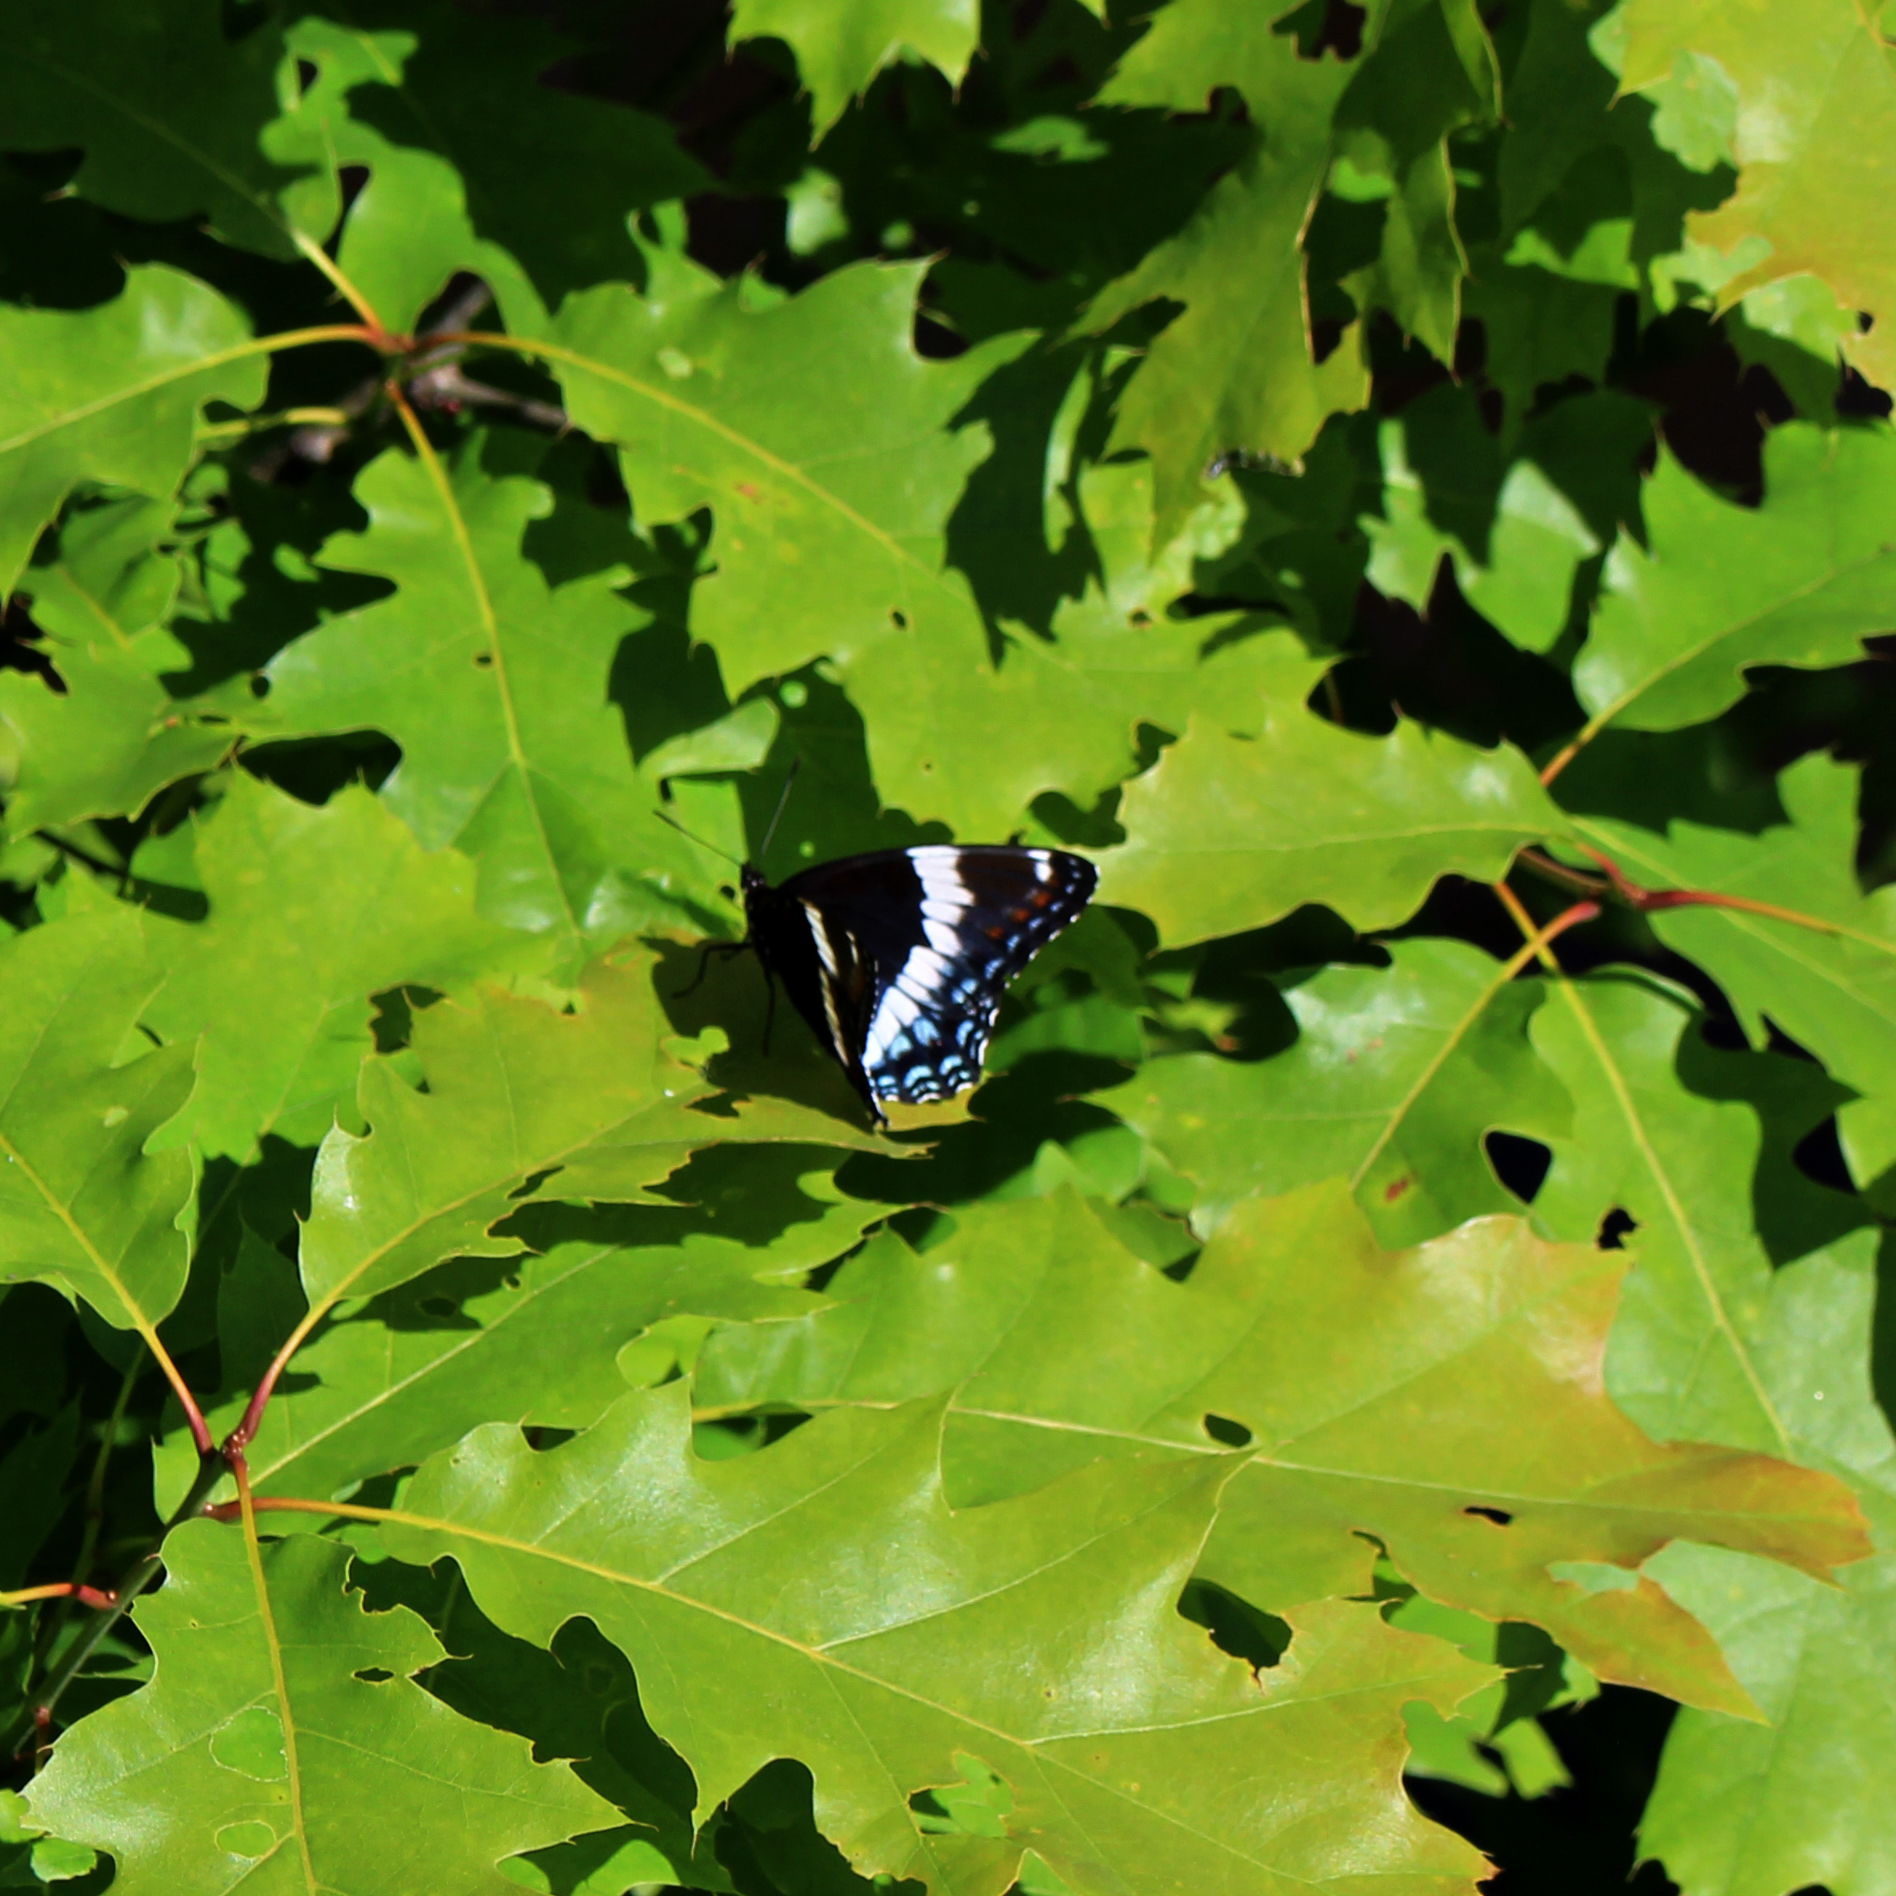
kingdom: Animalia
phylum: Arthropoda
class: Insecta
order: Lepidoptera
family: Nymphalidae
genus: Limenitis
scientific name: Limenitis arthemis
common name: Red-spotted admiral
